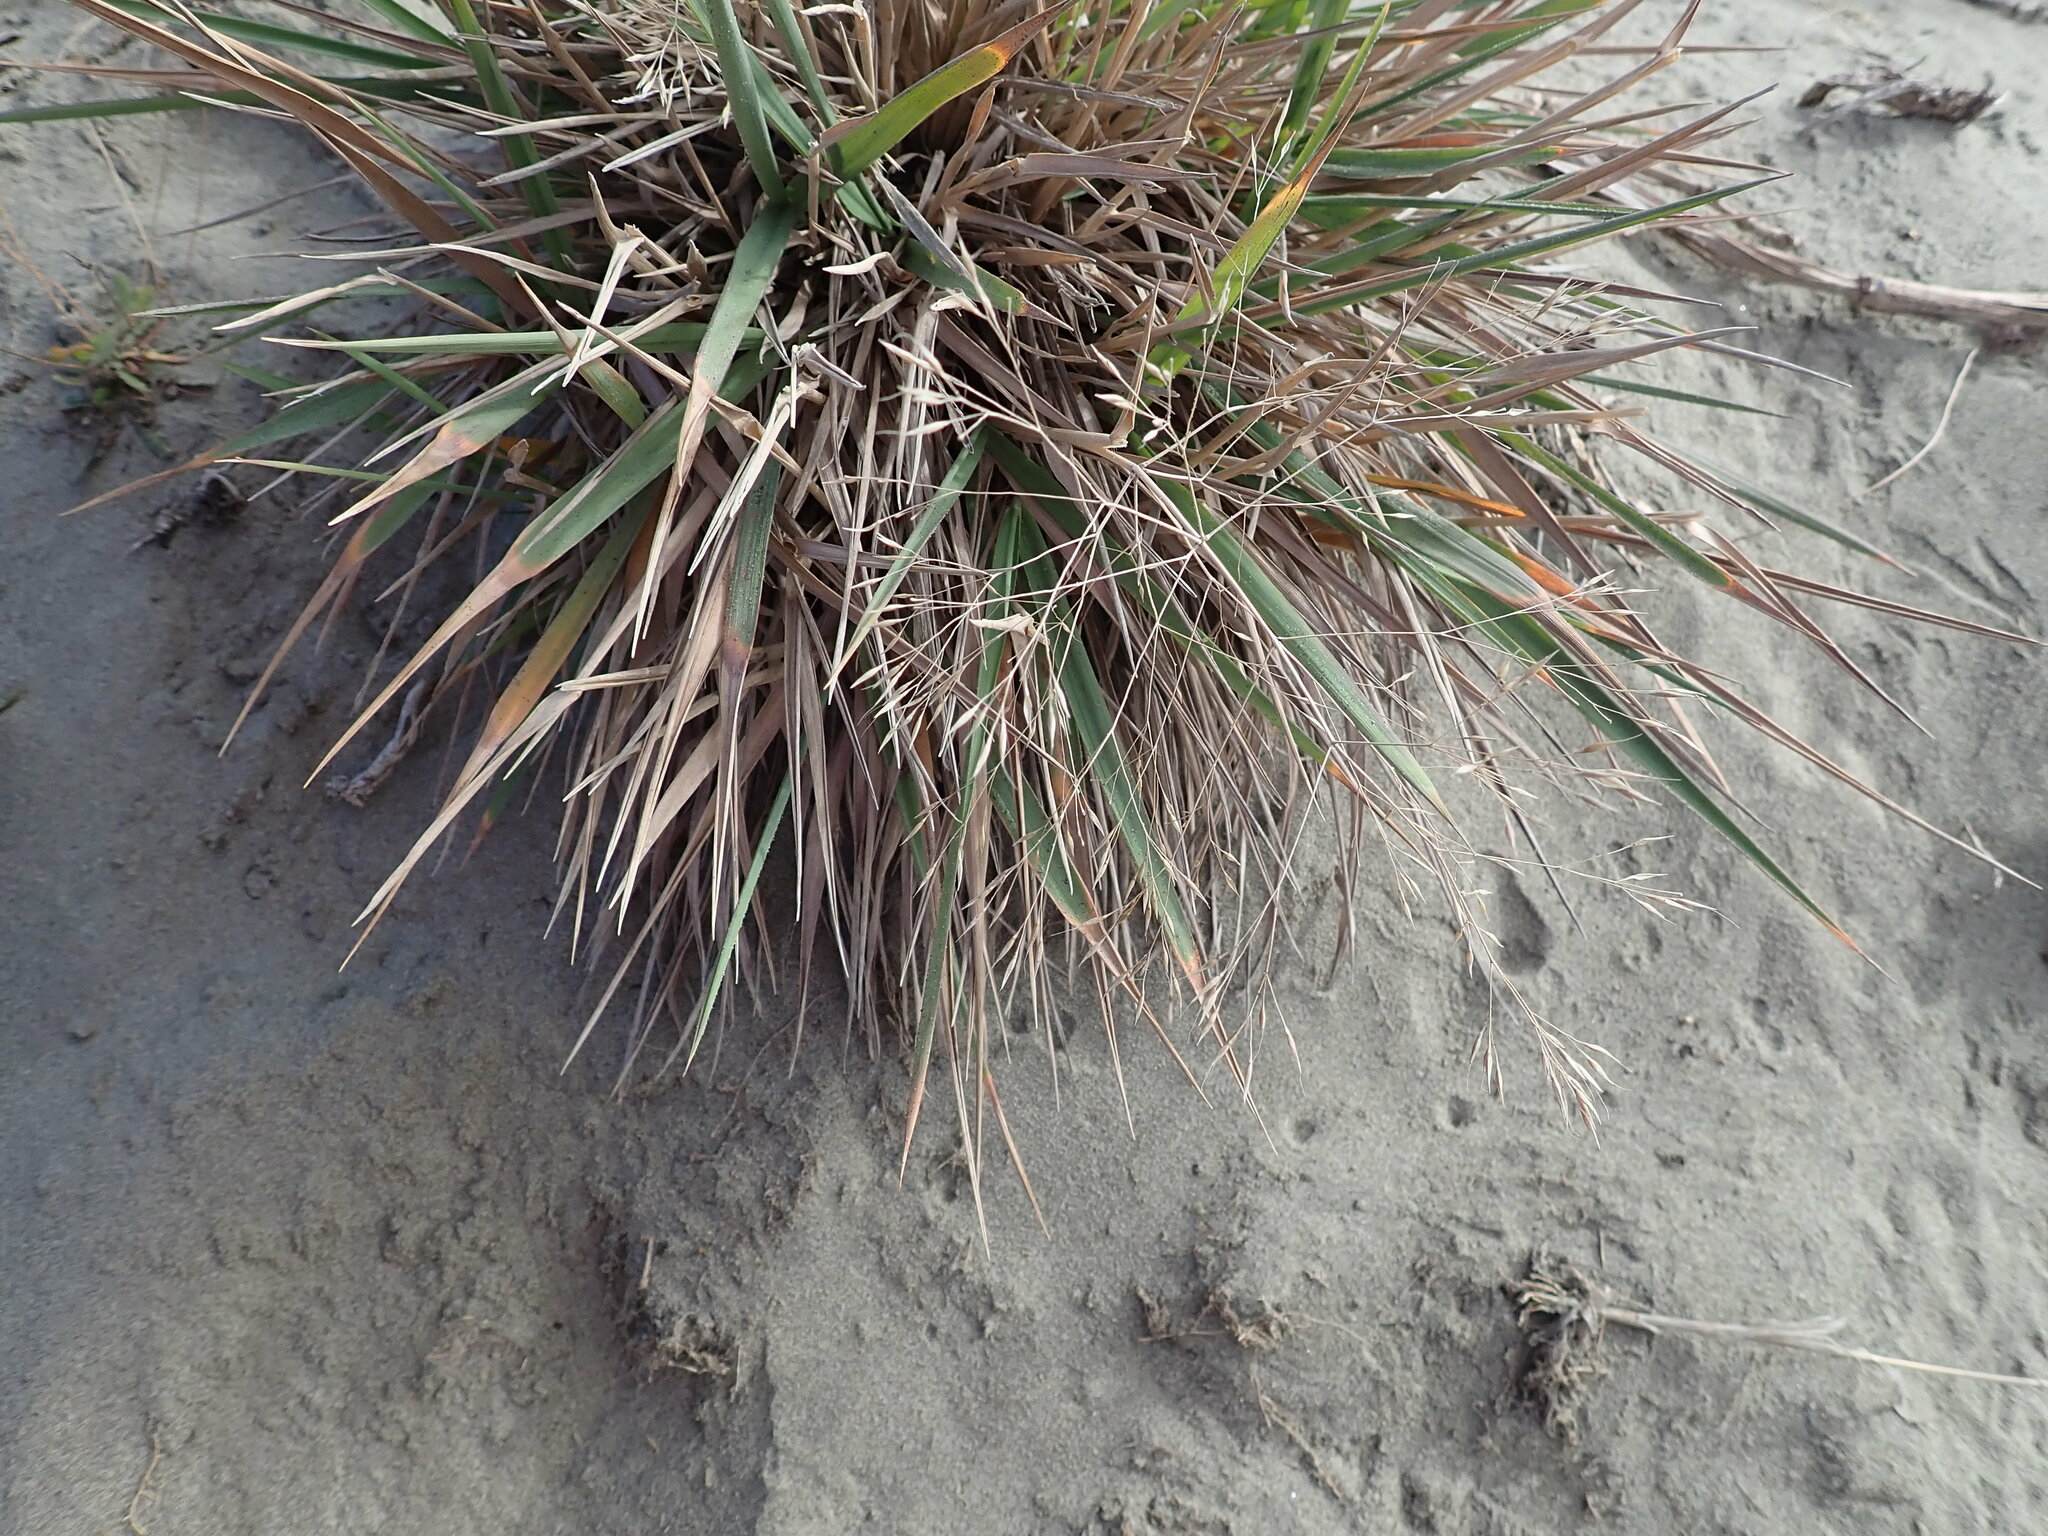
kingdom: Plantae
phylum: Tracheophyta
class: Liliopsida
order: Poales
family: Poaceae
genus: Lachnagrostis
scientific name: Lachnagrostis billardierei
